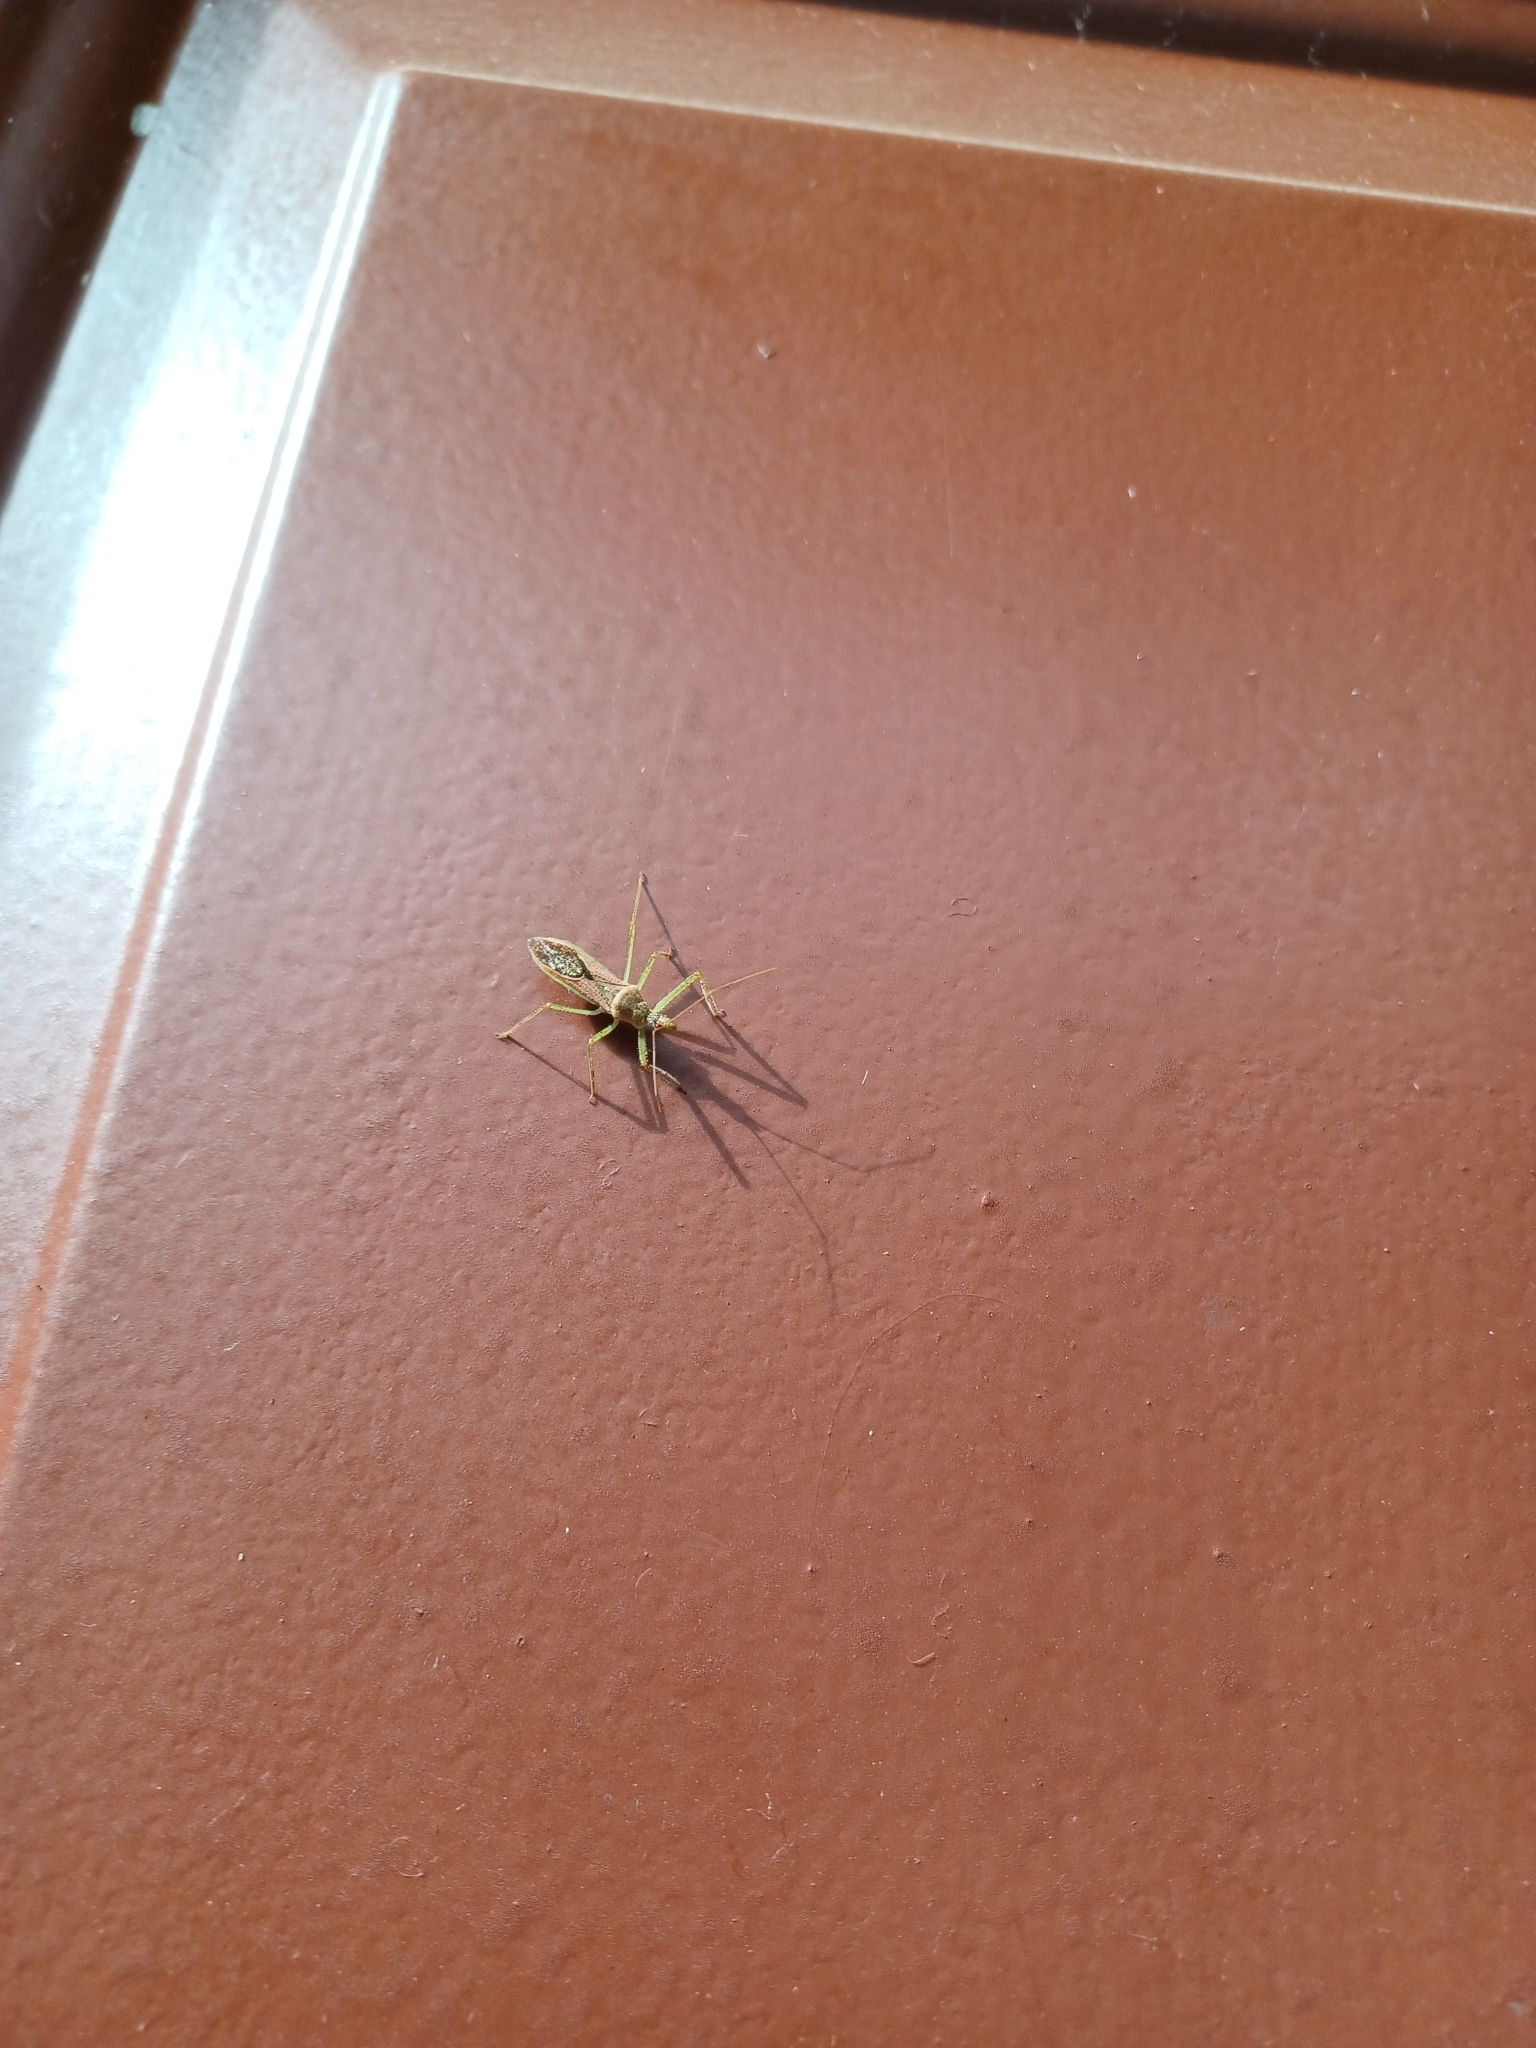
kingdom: Animalia
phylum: Arthropoda
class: Insecta
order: Hemiptera
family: Reduviidae
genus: Zelus
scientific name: Zelus renardii
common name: Assassin bug
